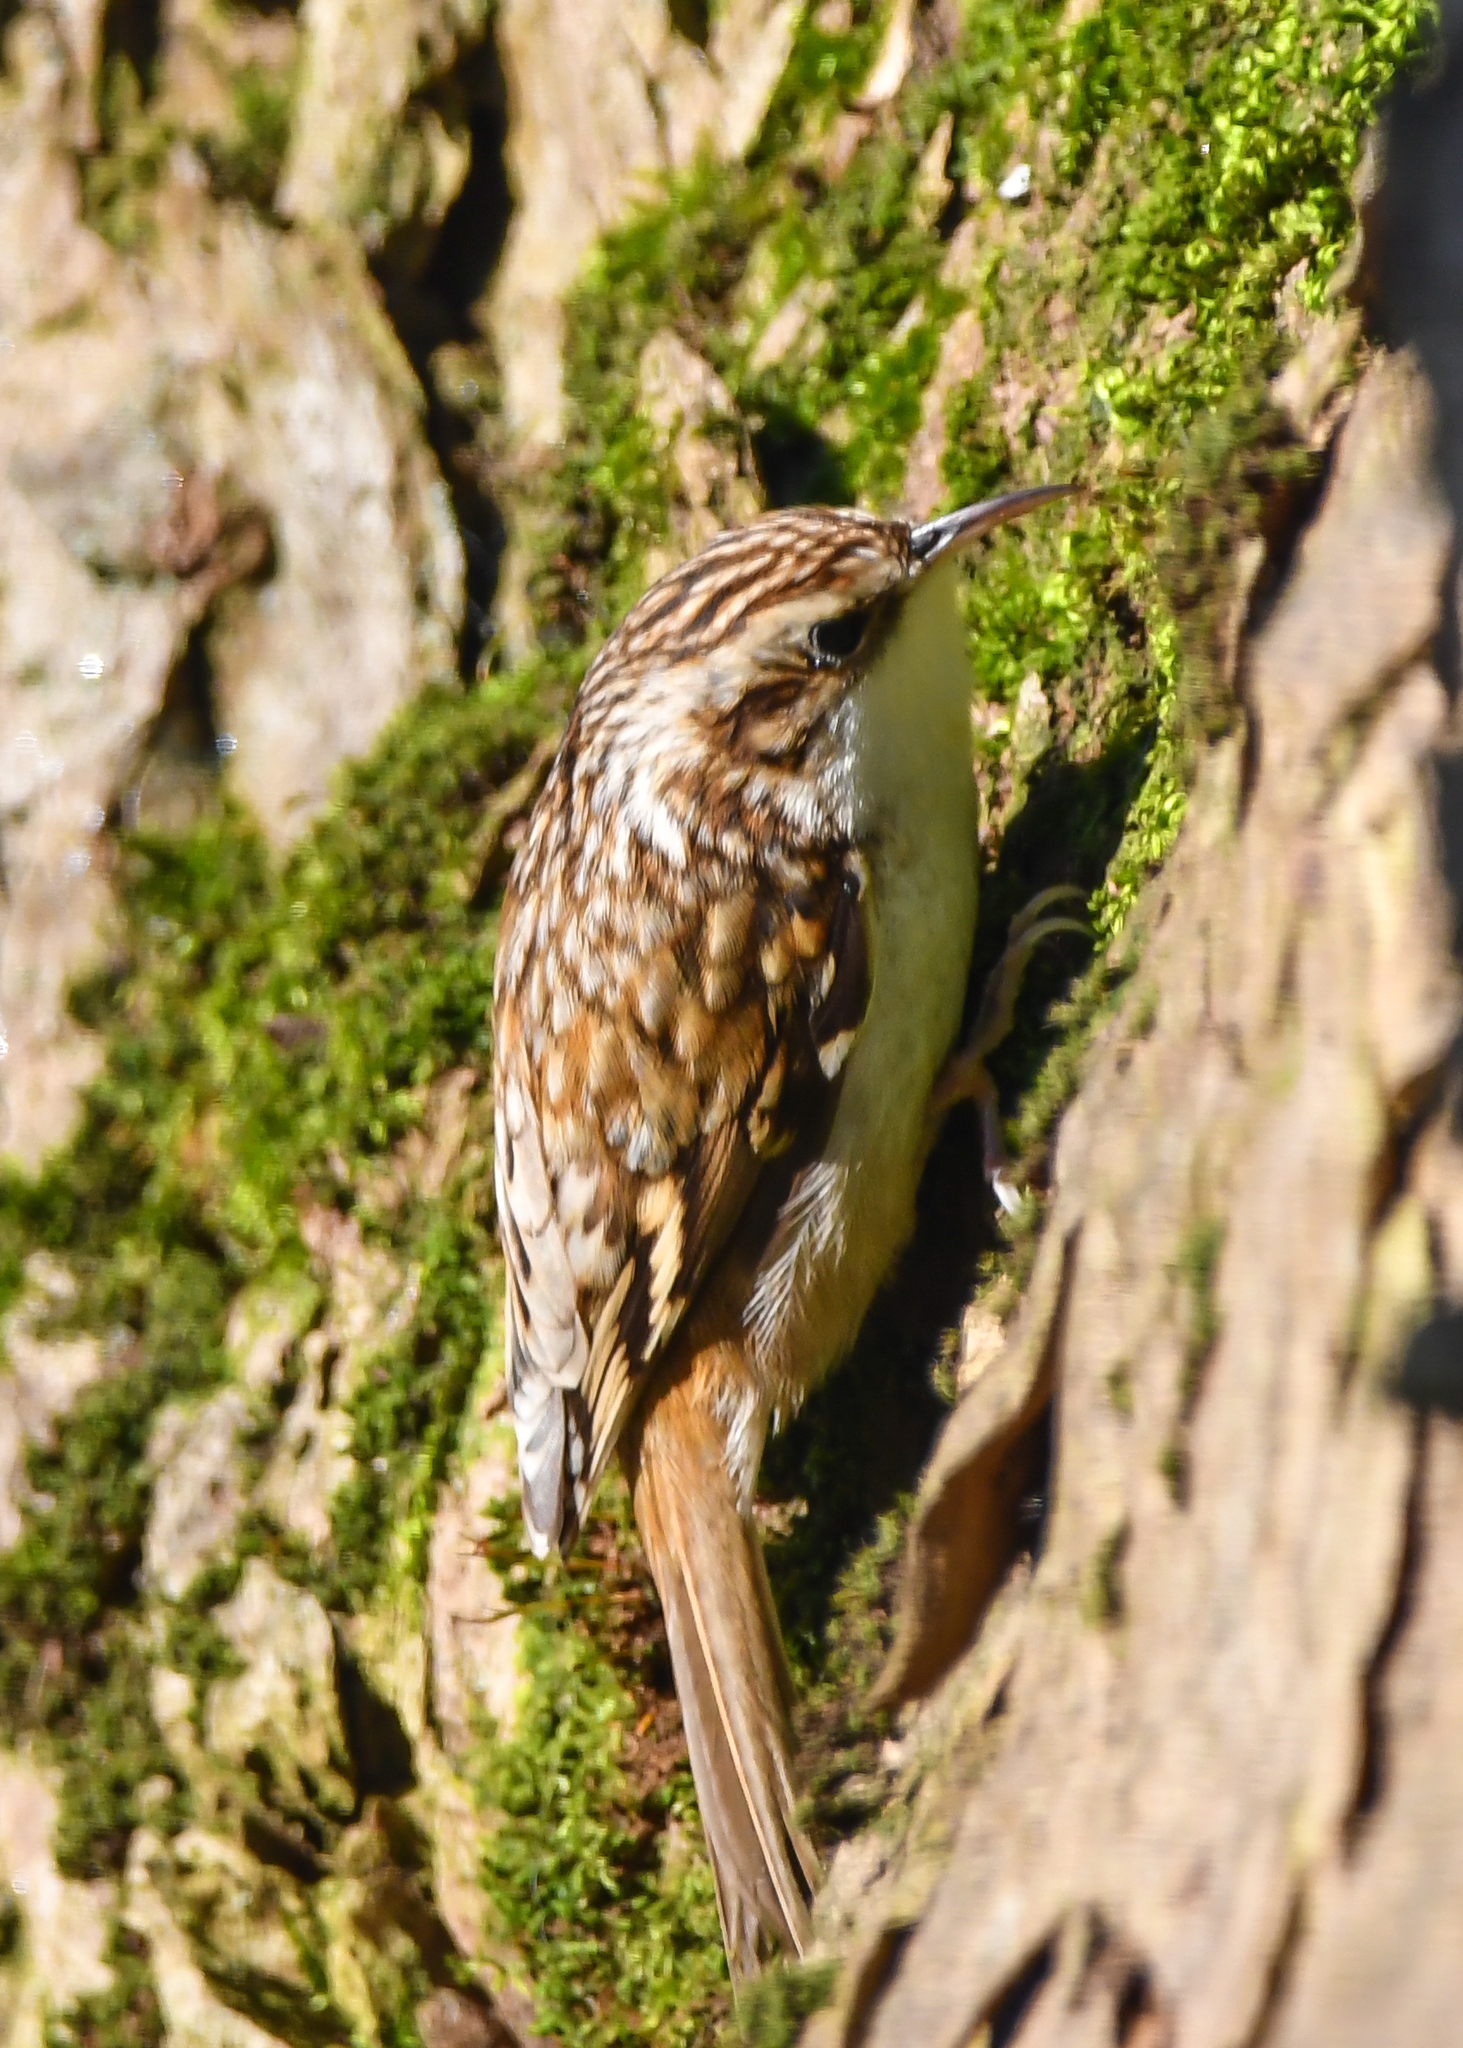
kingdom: Animalia
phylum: Chordata
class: Aves
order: Passeriformes
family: Certhiidae
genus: Certhia
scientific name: Certhia familiaris
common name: Eurasian treecreeper
